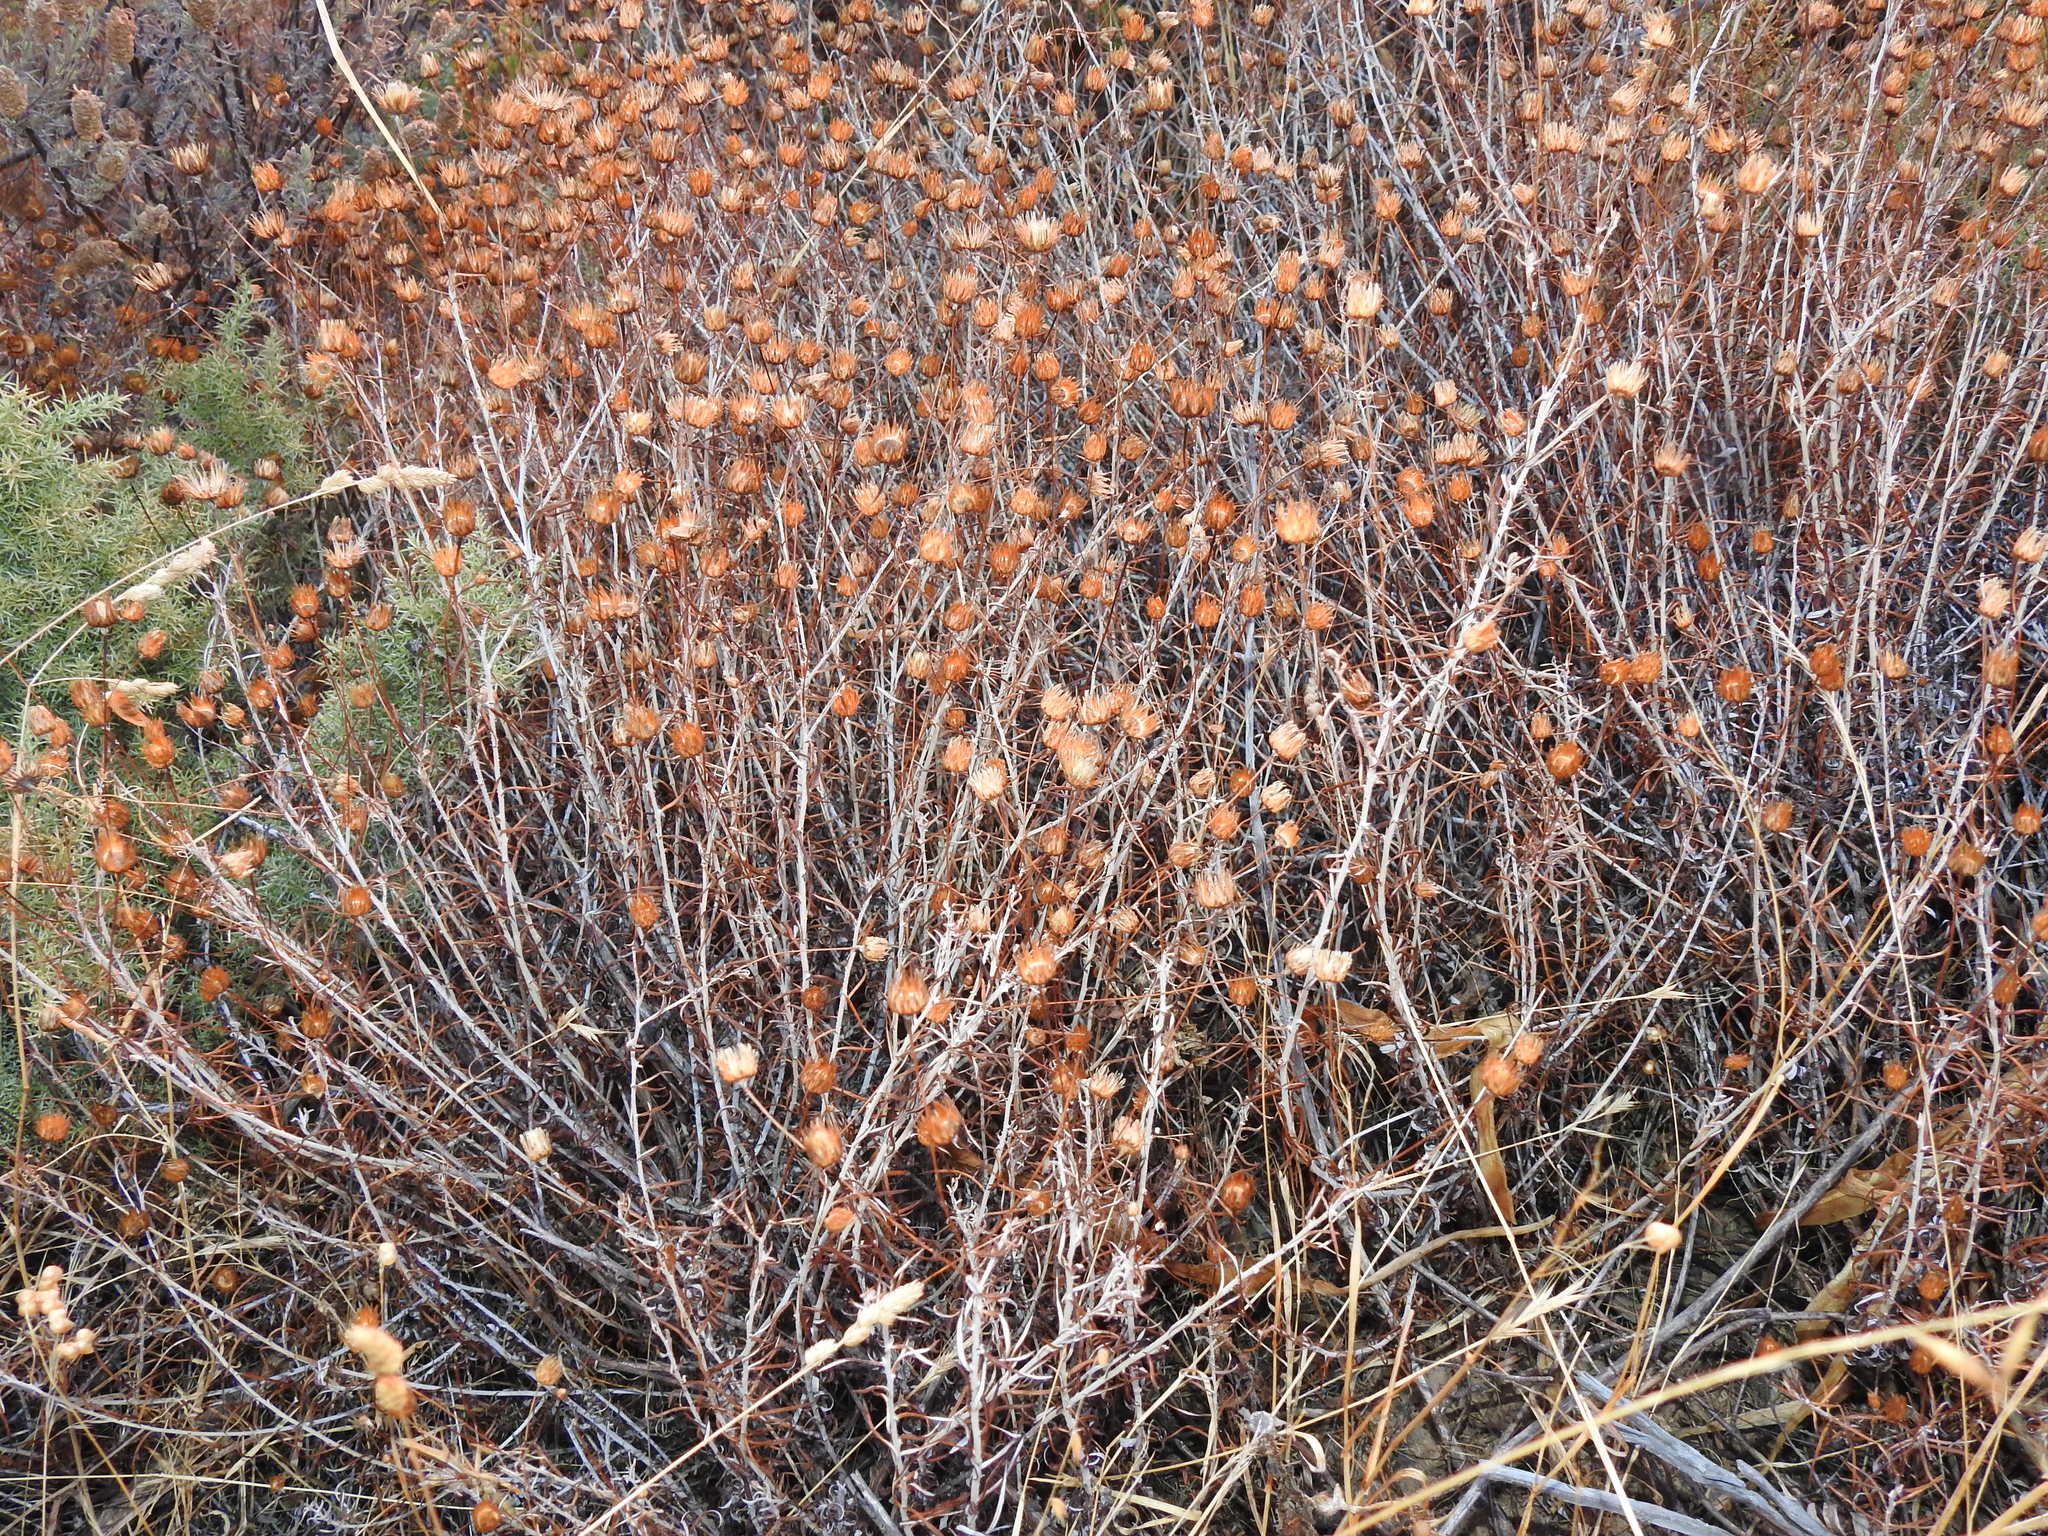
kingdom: Plantae
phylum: Tracheophyta
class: Magnoliopsida
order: Asterales
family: Asteraceae
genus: Phagnalon
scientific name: Phagnalon saxatile
